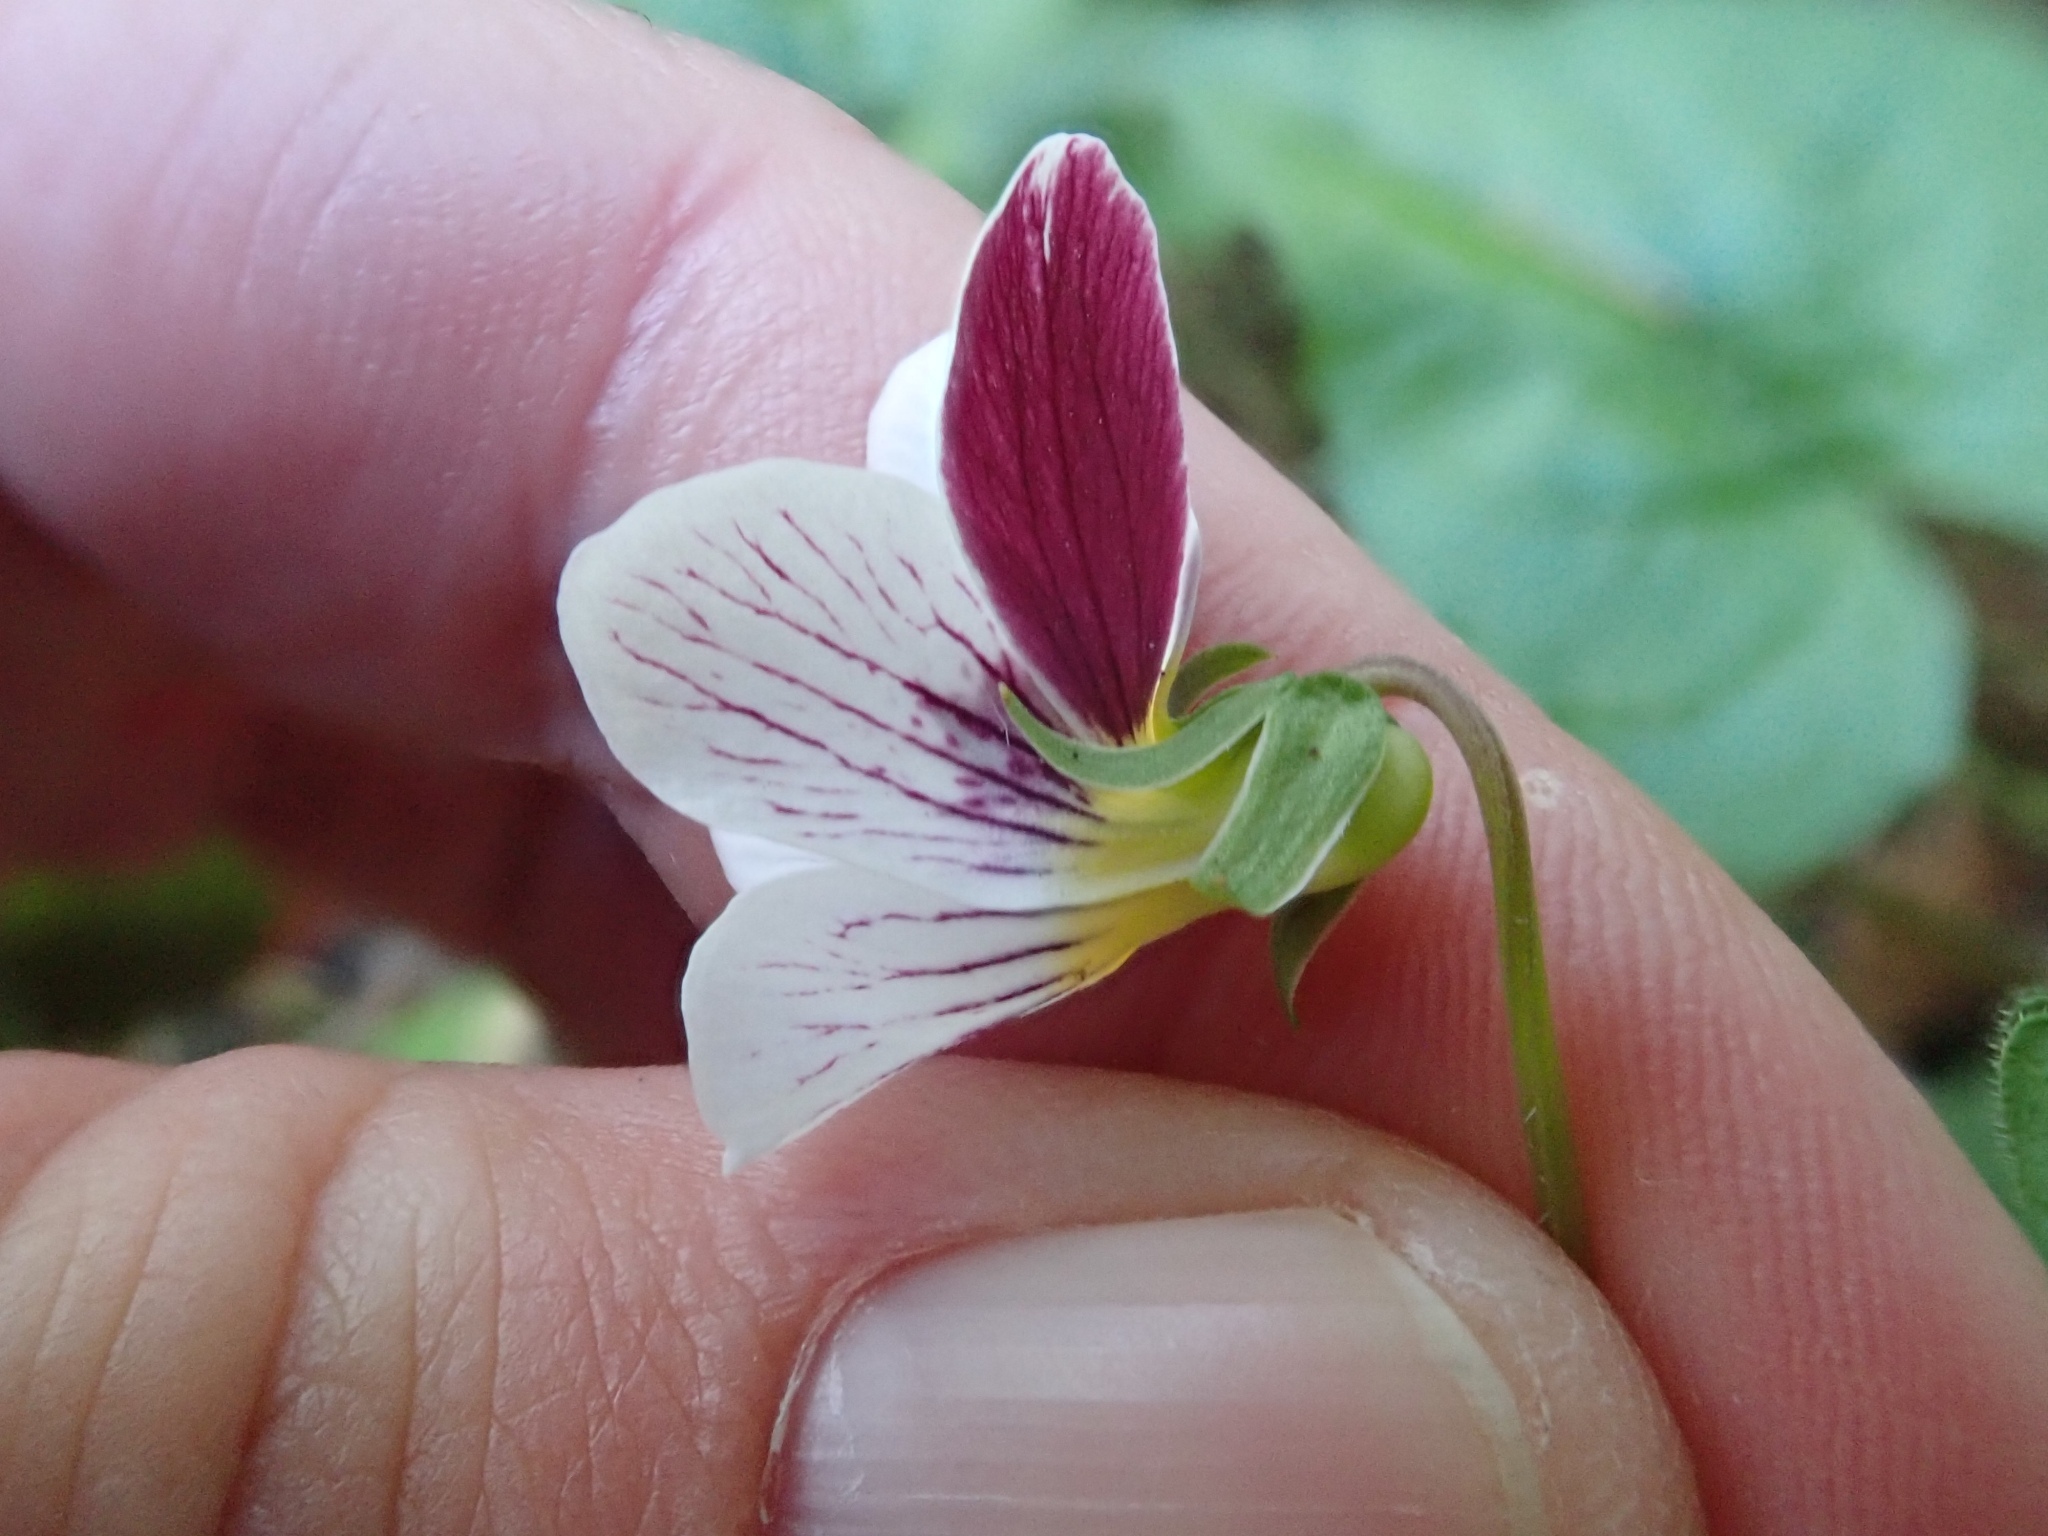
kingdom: Plantae
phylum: Tracheophyta
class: Magnoliopsida
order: Malpighiales
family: Violaceae
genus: Viola
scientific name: Viola ocellata
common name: Western heart's ease
